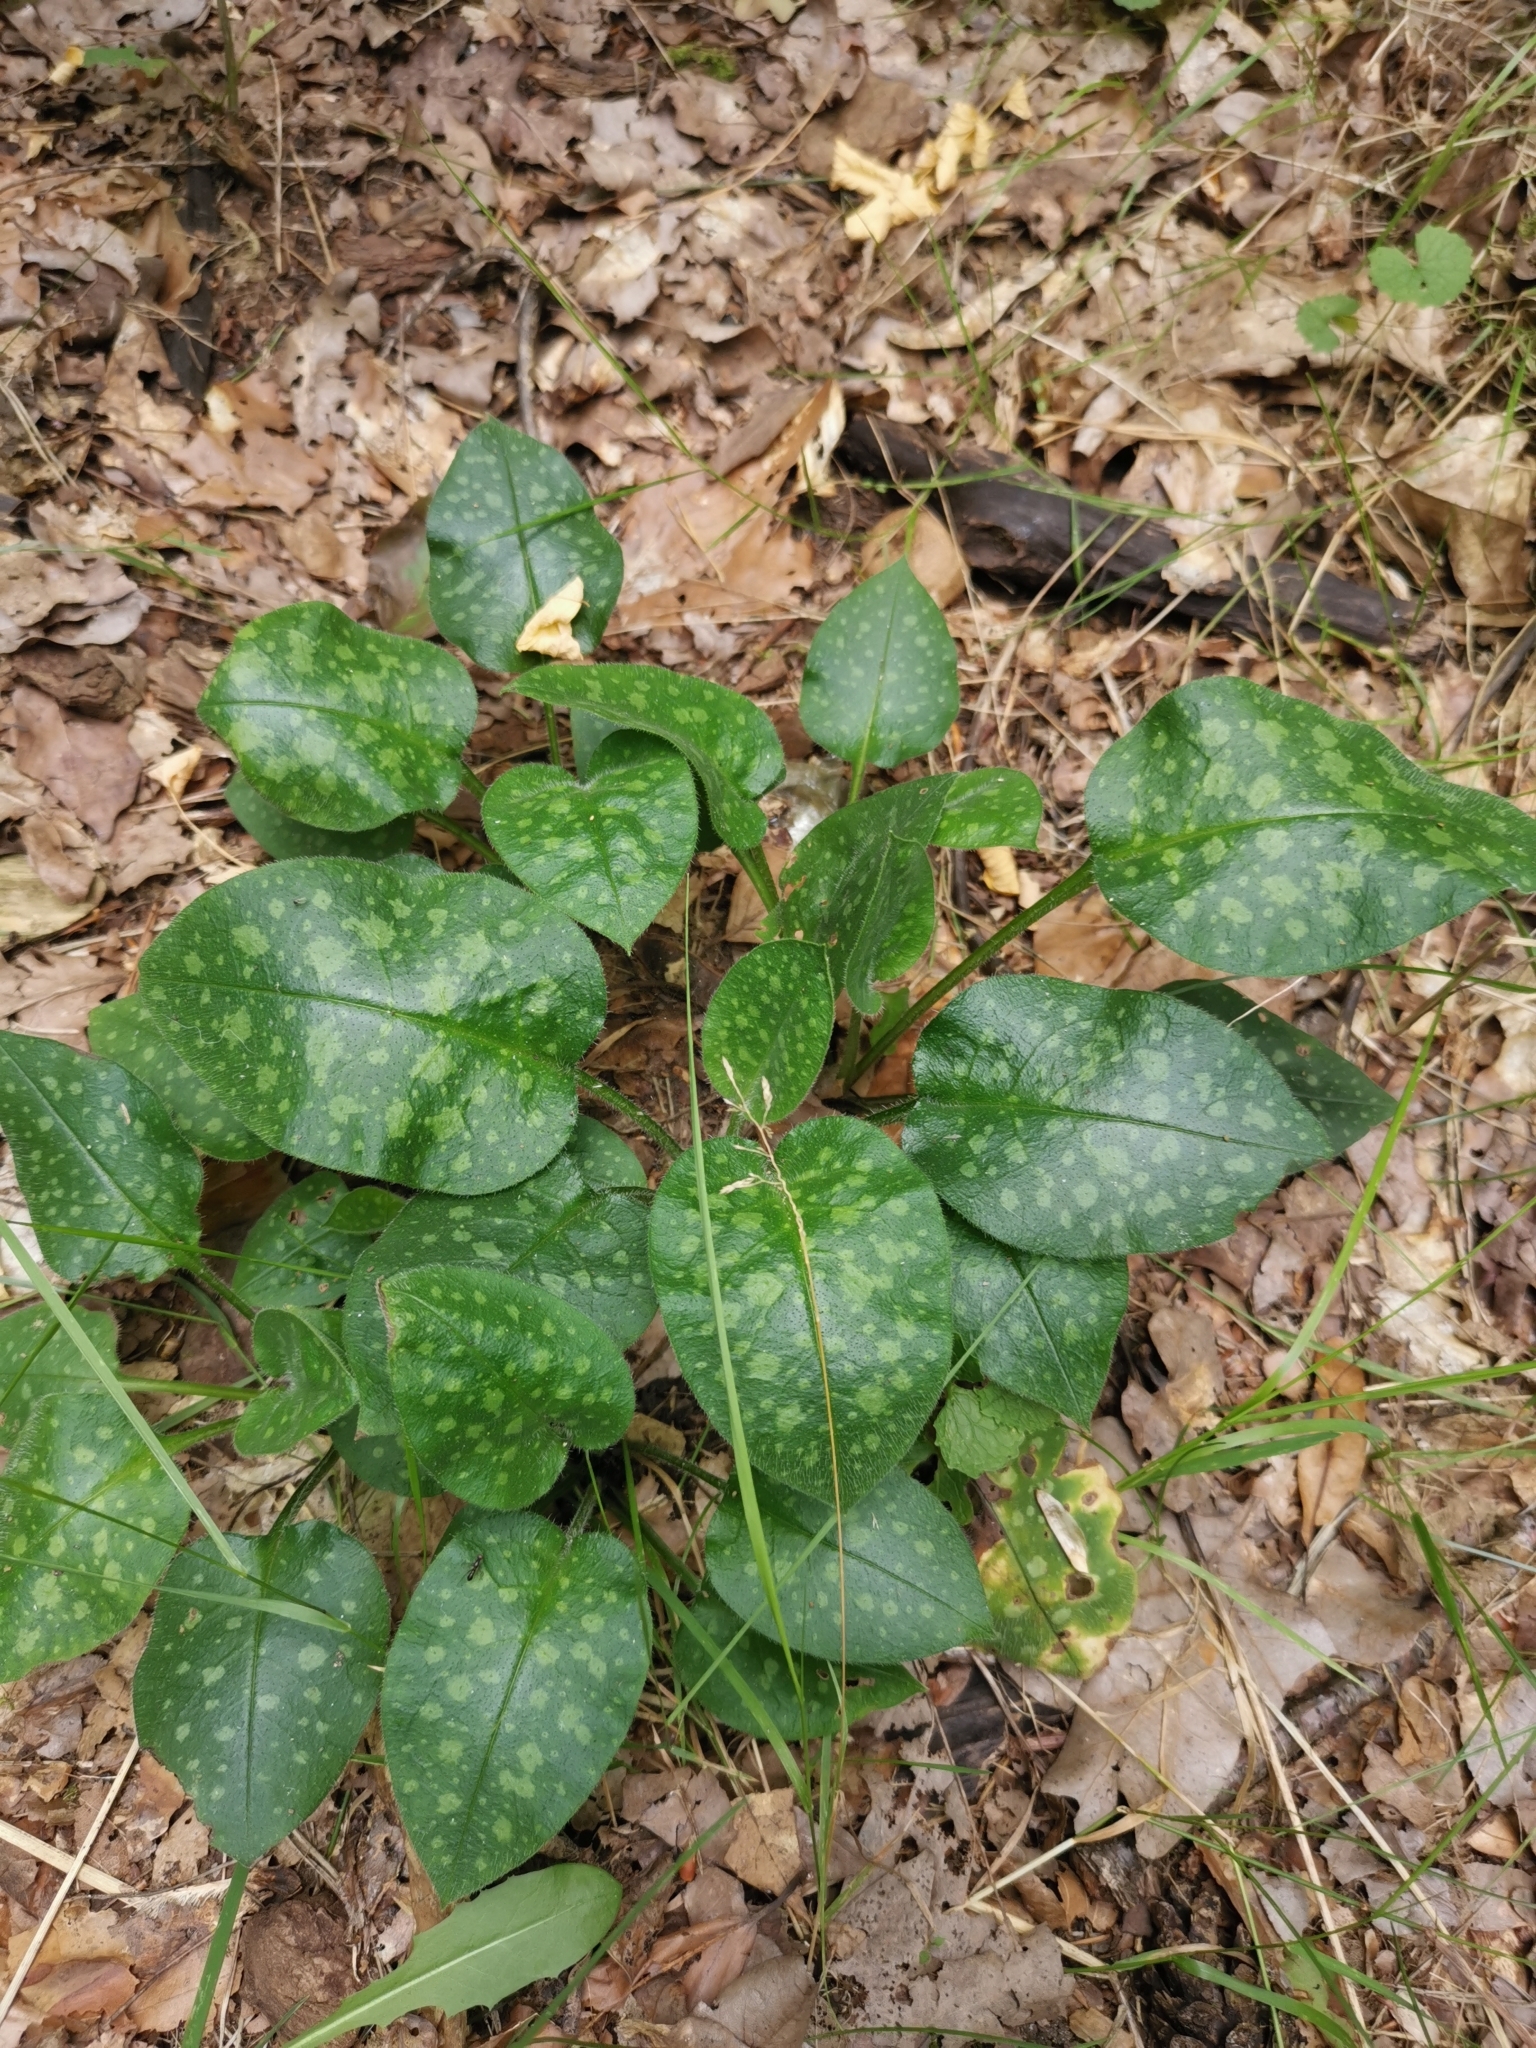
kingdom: Plantae
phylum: Tracheophyta
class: Magnoliopsida
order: Boraginales
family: Boraginaceae
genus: Pulmonaria
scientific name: Pulmonaria officinalis
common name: Lungwort
